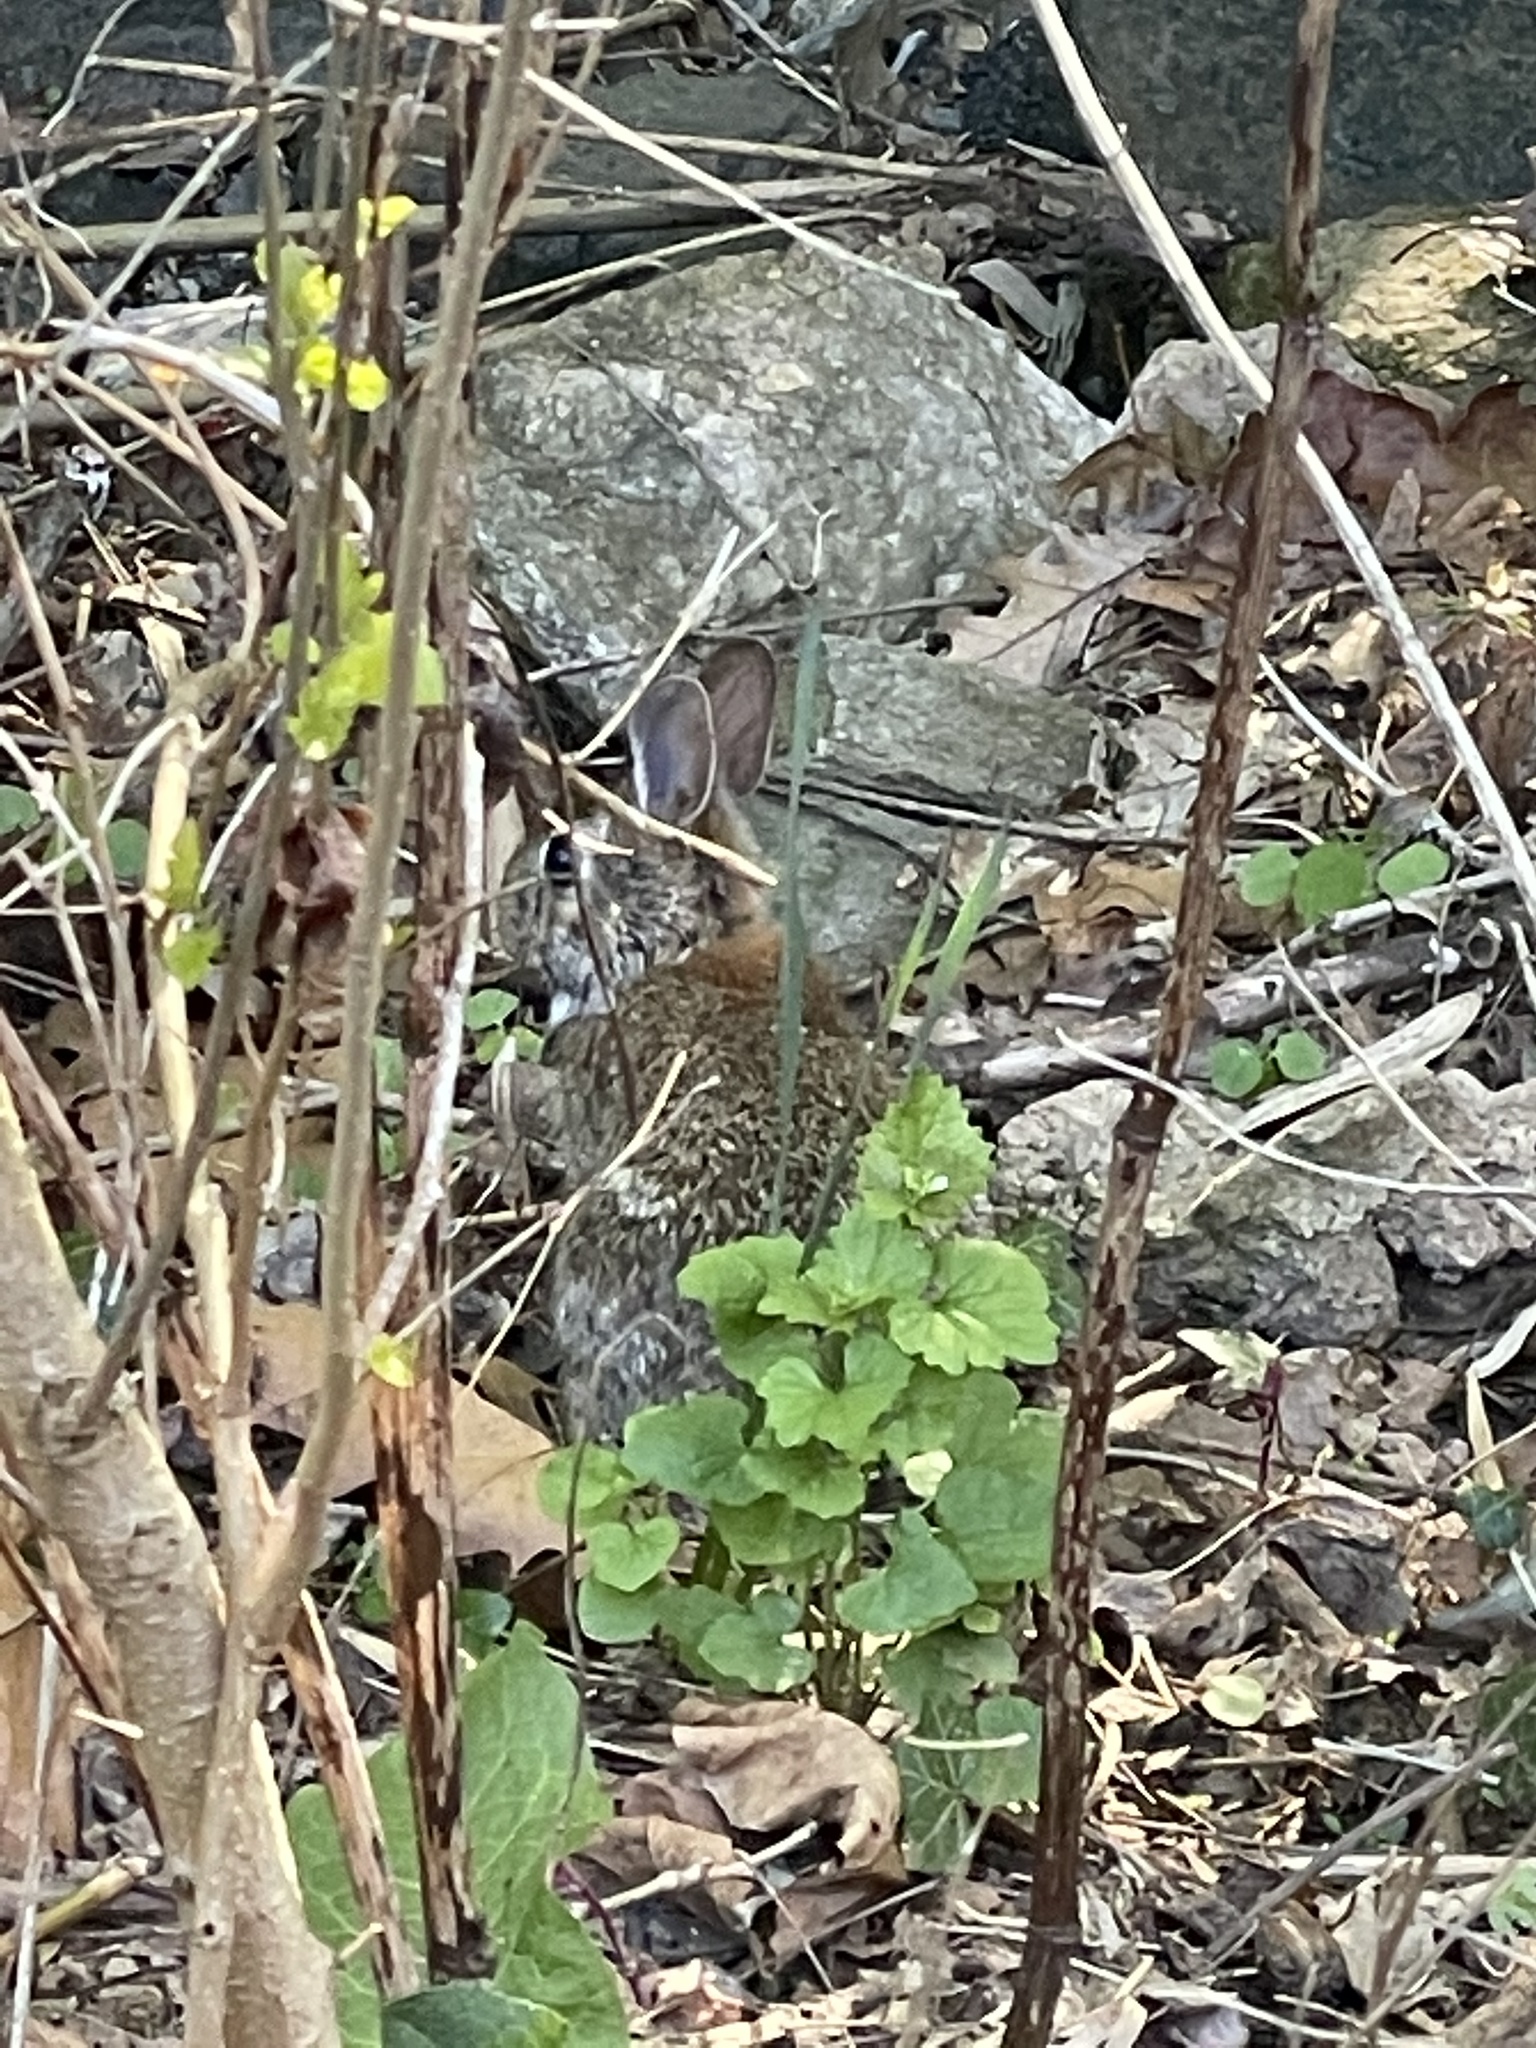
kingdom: Animalia
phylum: Chordata
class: Mammalia
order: Lagomorpha
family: Leporidae
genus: Sylvilagus
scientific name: Sylvilagus floridanus
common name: Eastern cottontail
